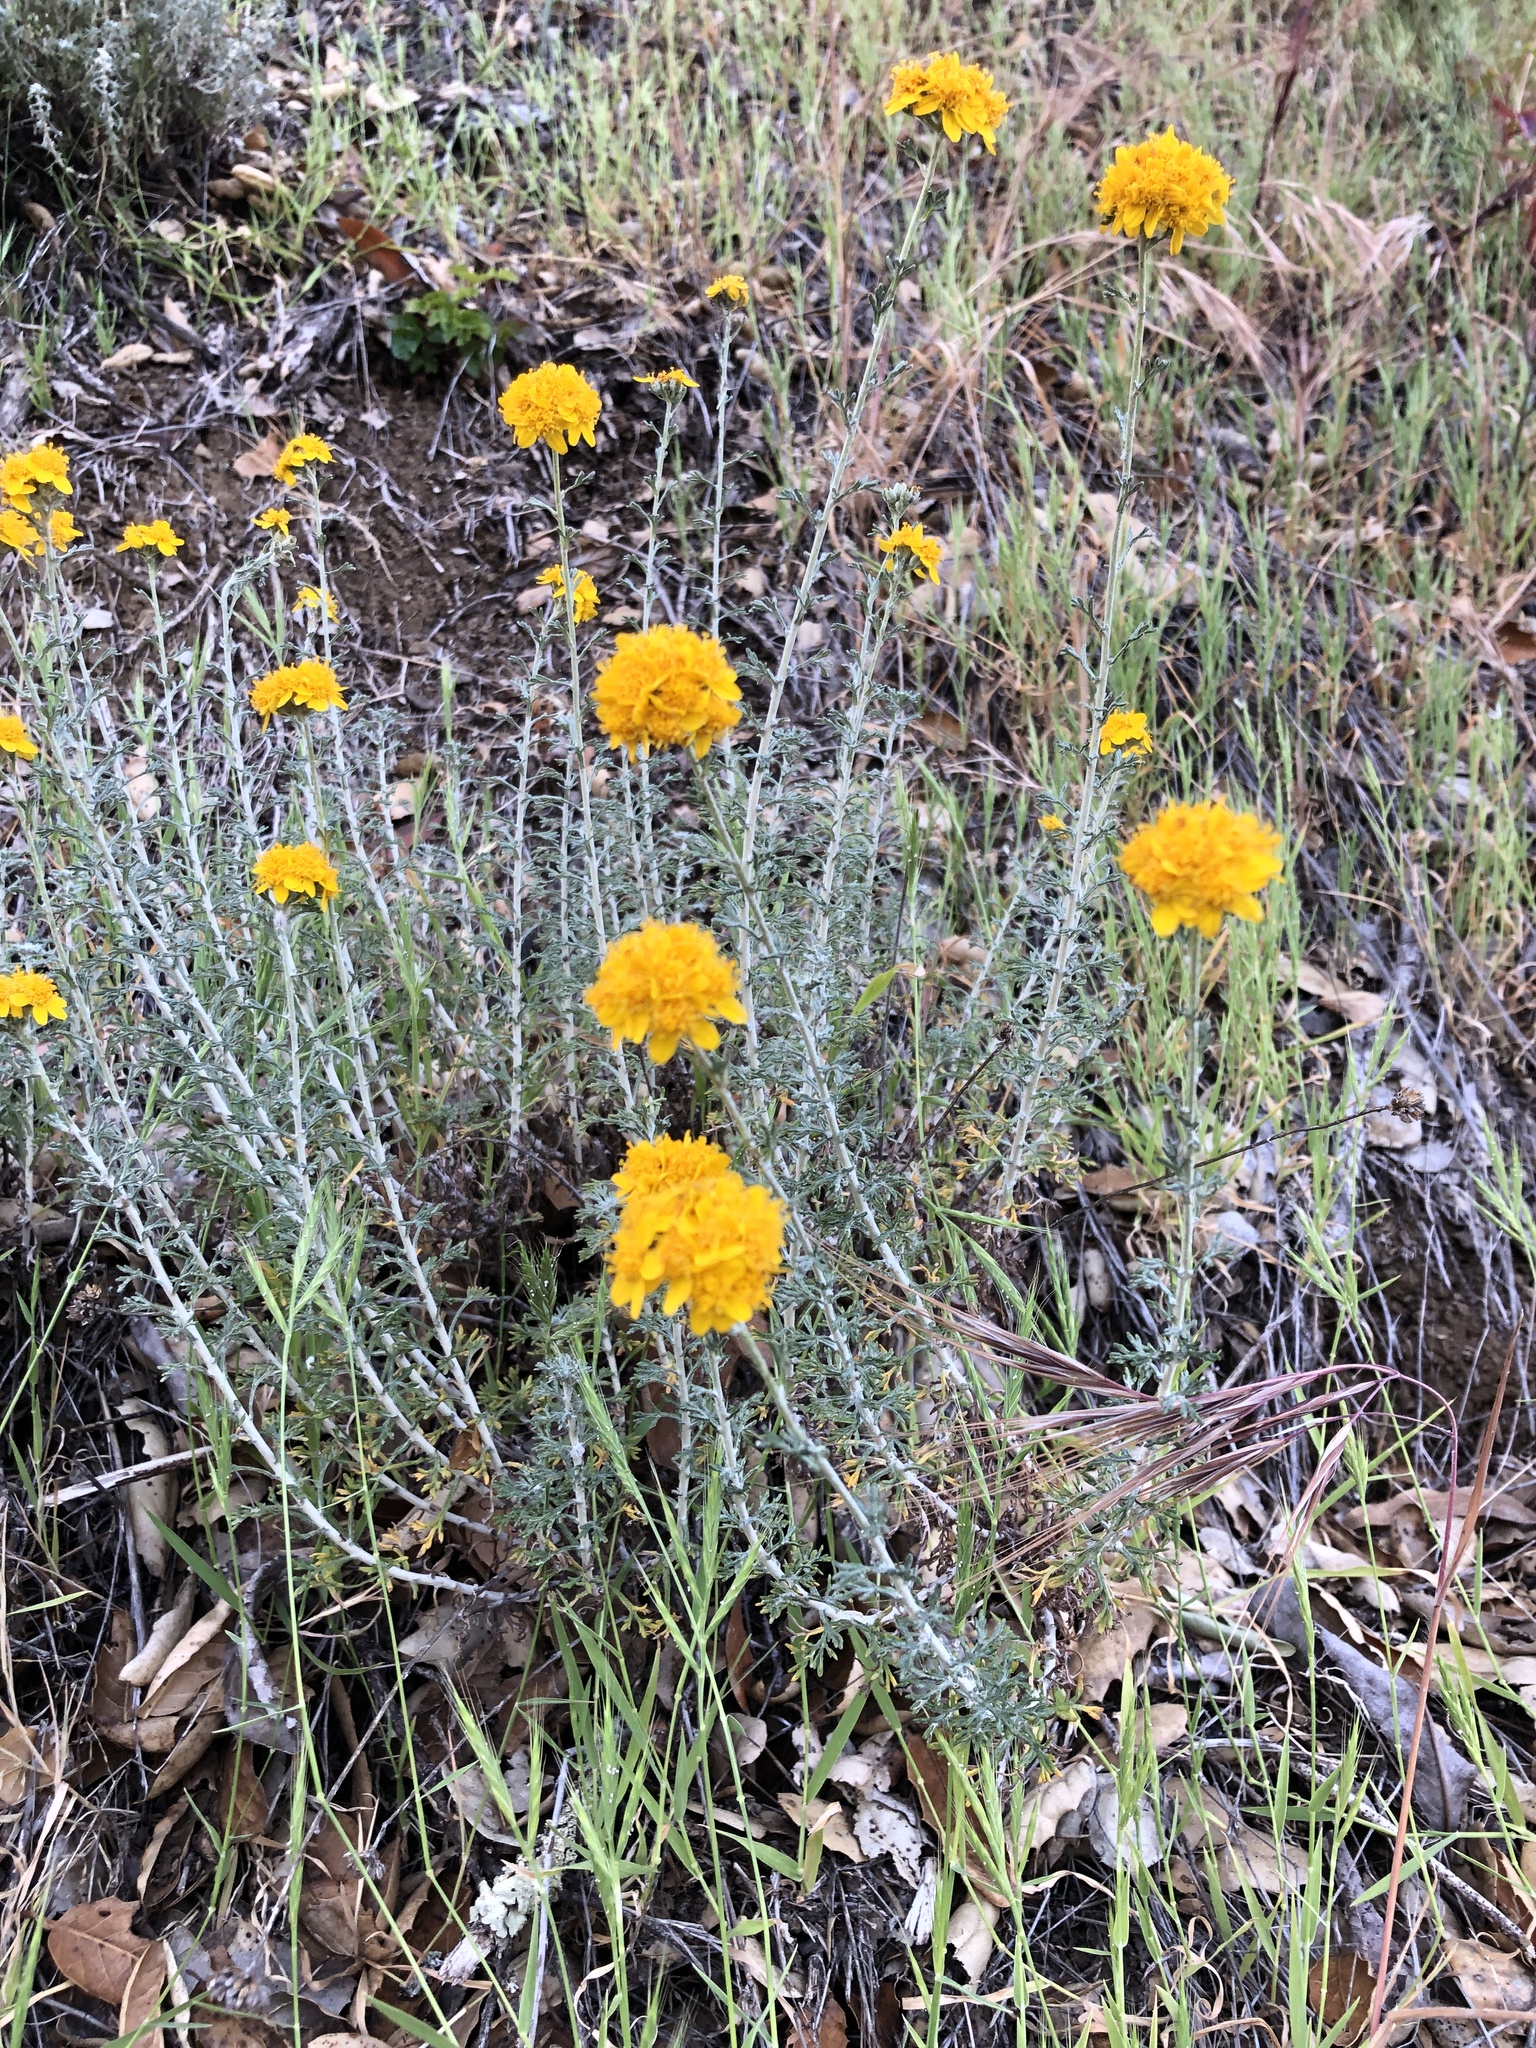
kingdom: Plantae
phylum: Tracheophyta
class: Magnoliopsida
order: Asterales
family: Asteraceae
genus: Eriophyllum
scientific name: Eriophyllum confertiflorum
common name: Golden-yarrow
